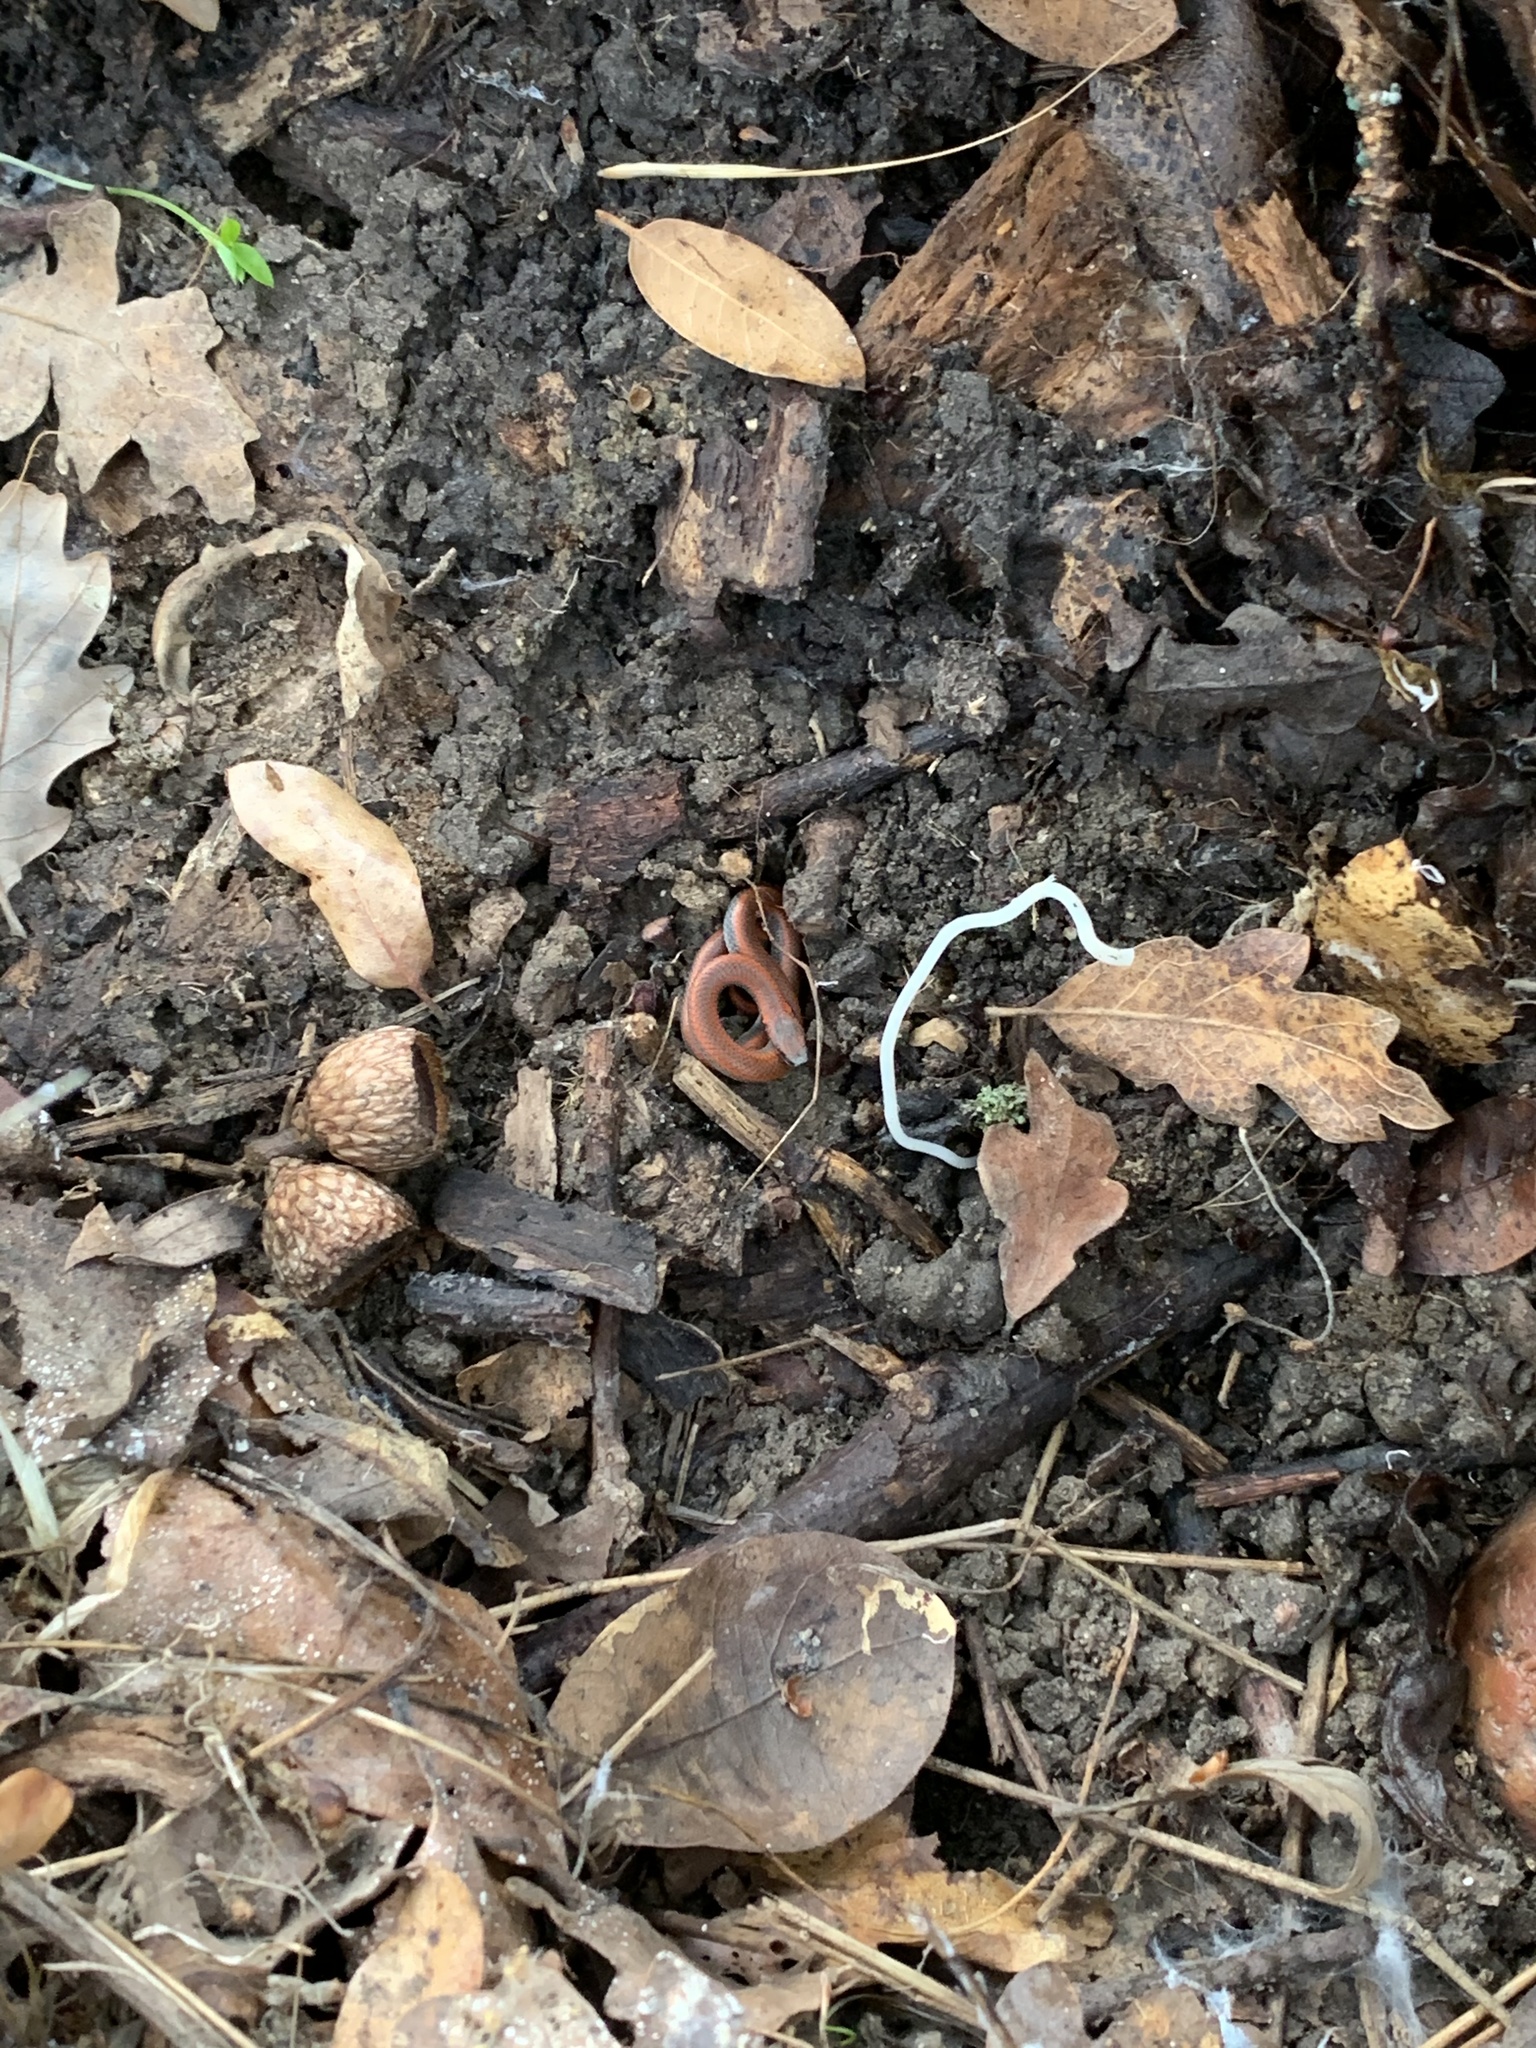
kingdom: Animalia
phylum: Chordata
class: Squamata
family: Colubridae
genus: Contia
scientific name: Contia tenuis
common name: Sharptail snake
